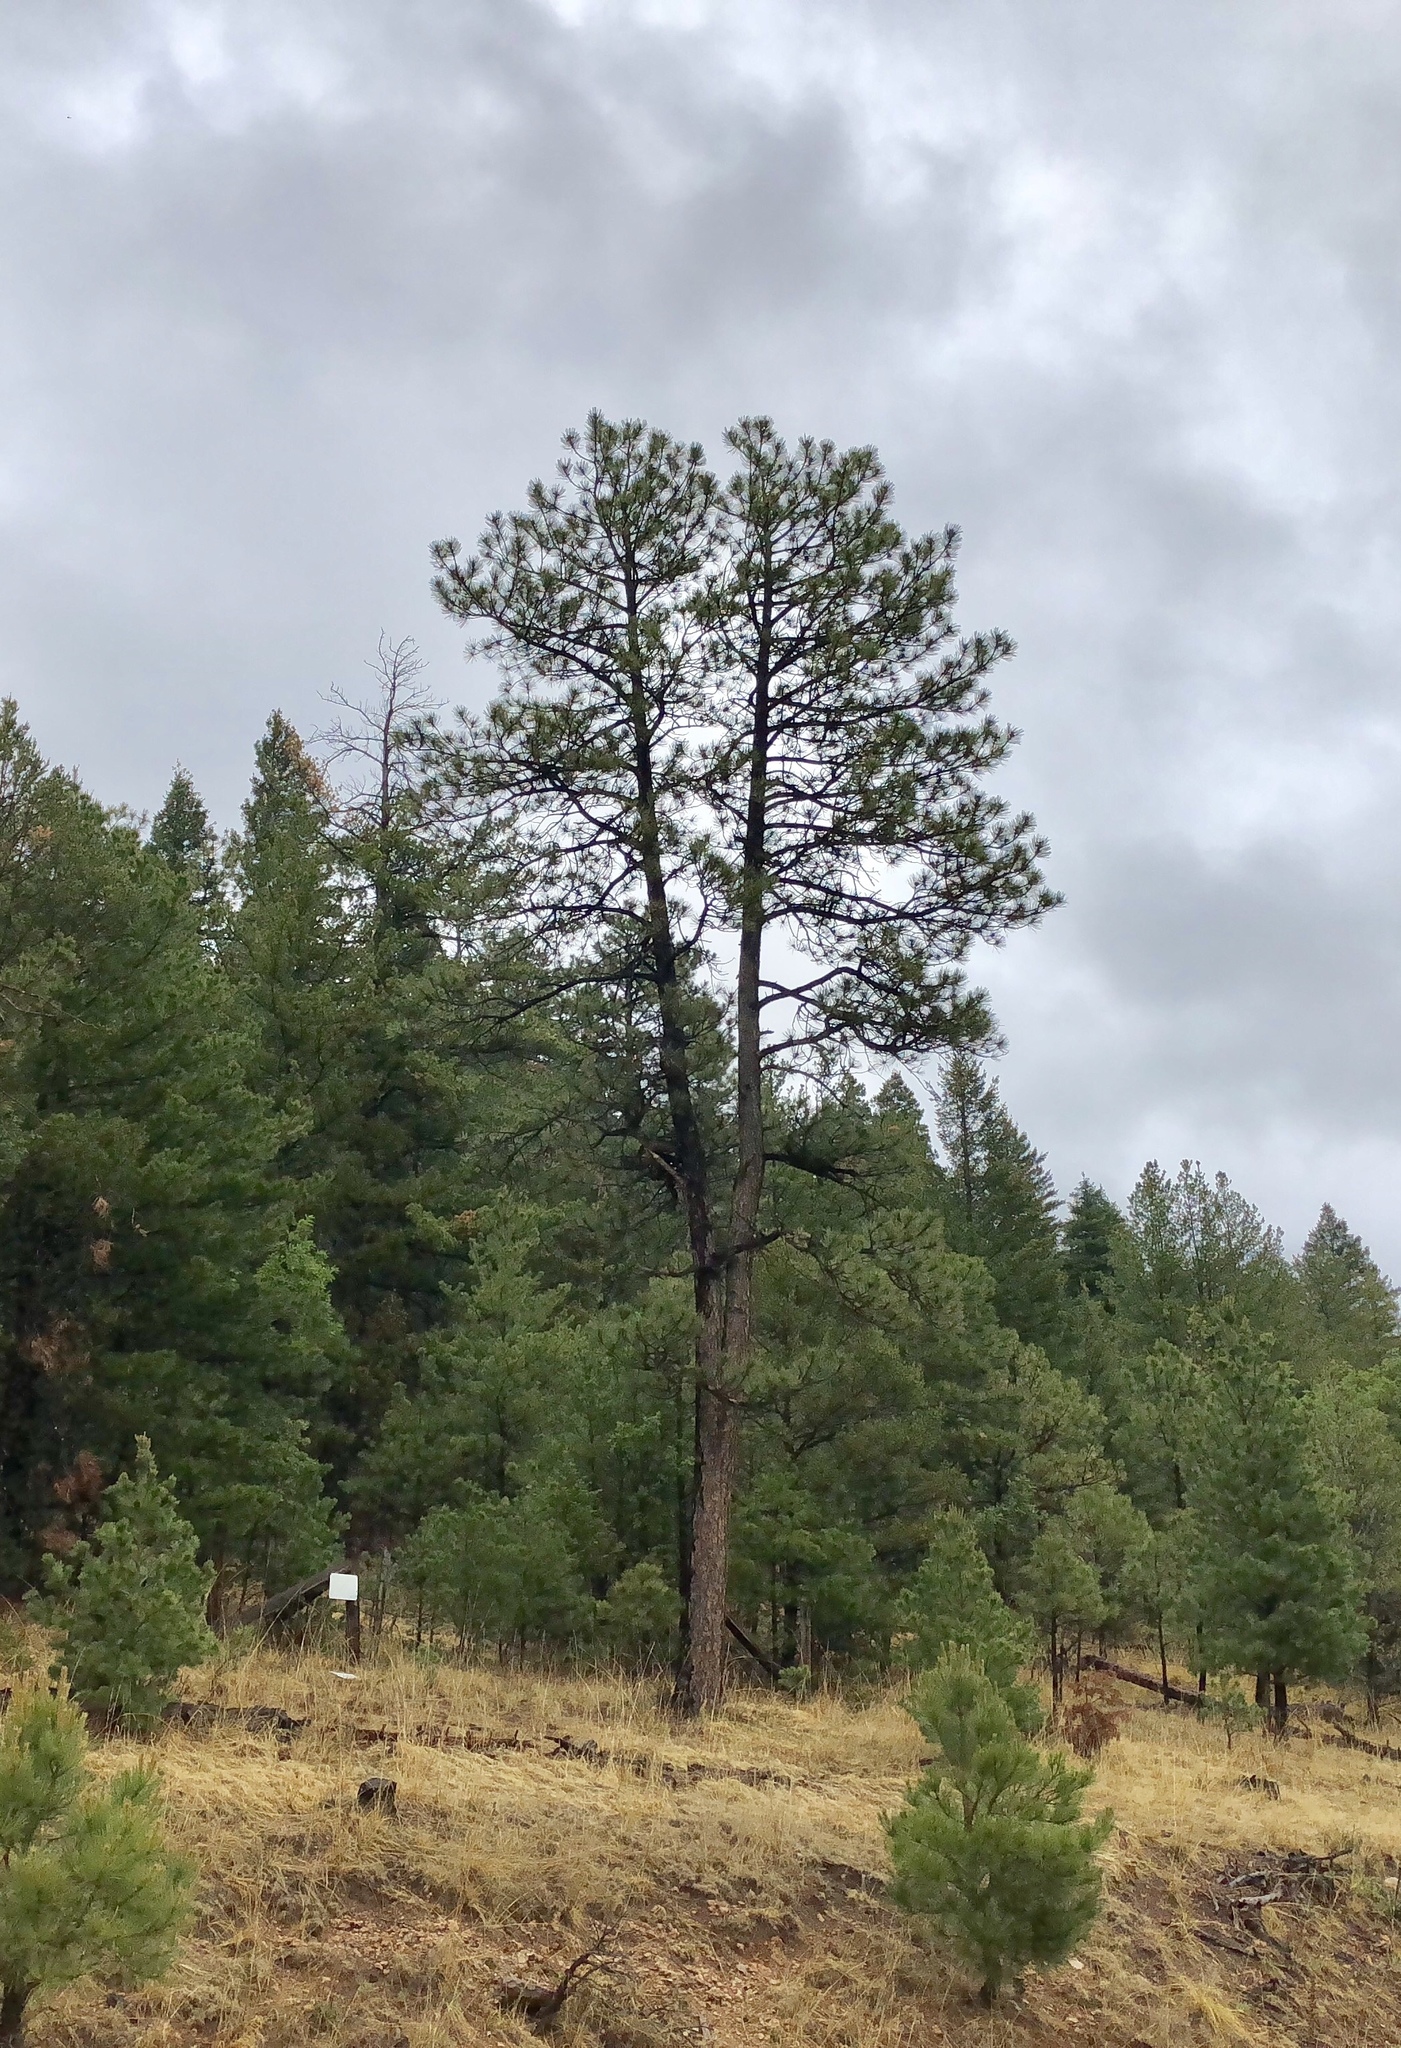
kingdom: Plantae
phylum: Tracheophyta
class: Pinopsida
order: Pinales
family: Pinaceae
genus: Pinus
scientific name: Pinus ponderosa
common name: Western yellow-pine
